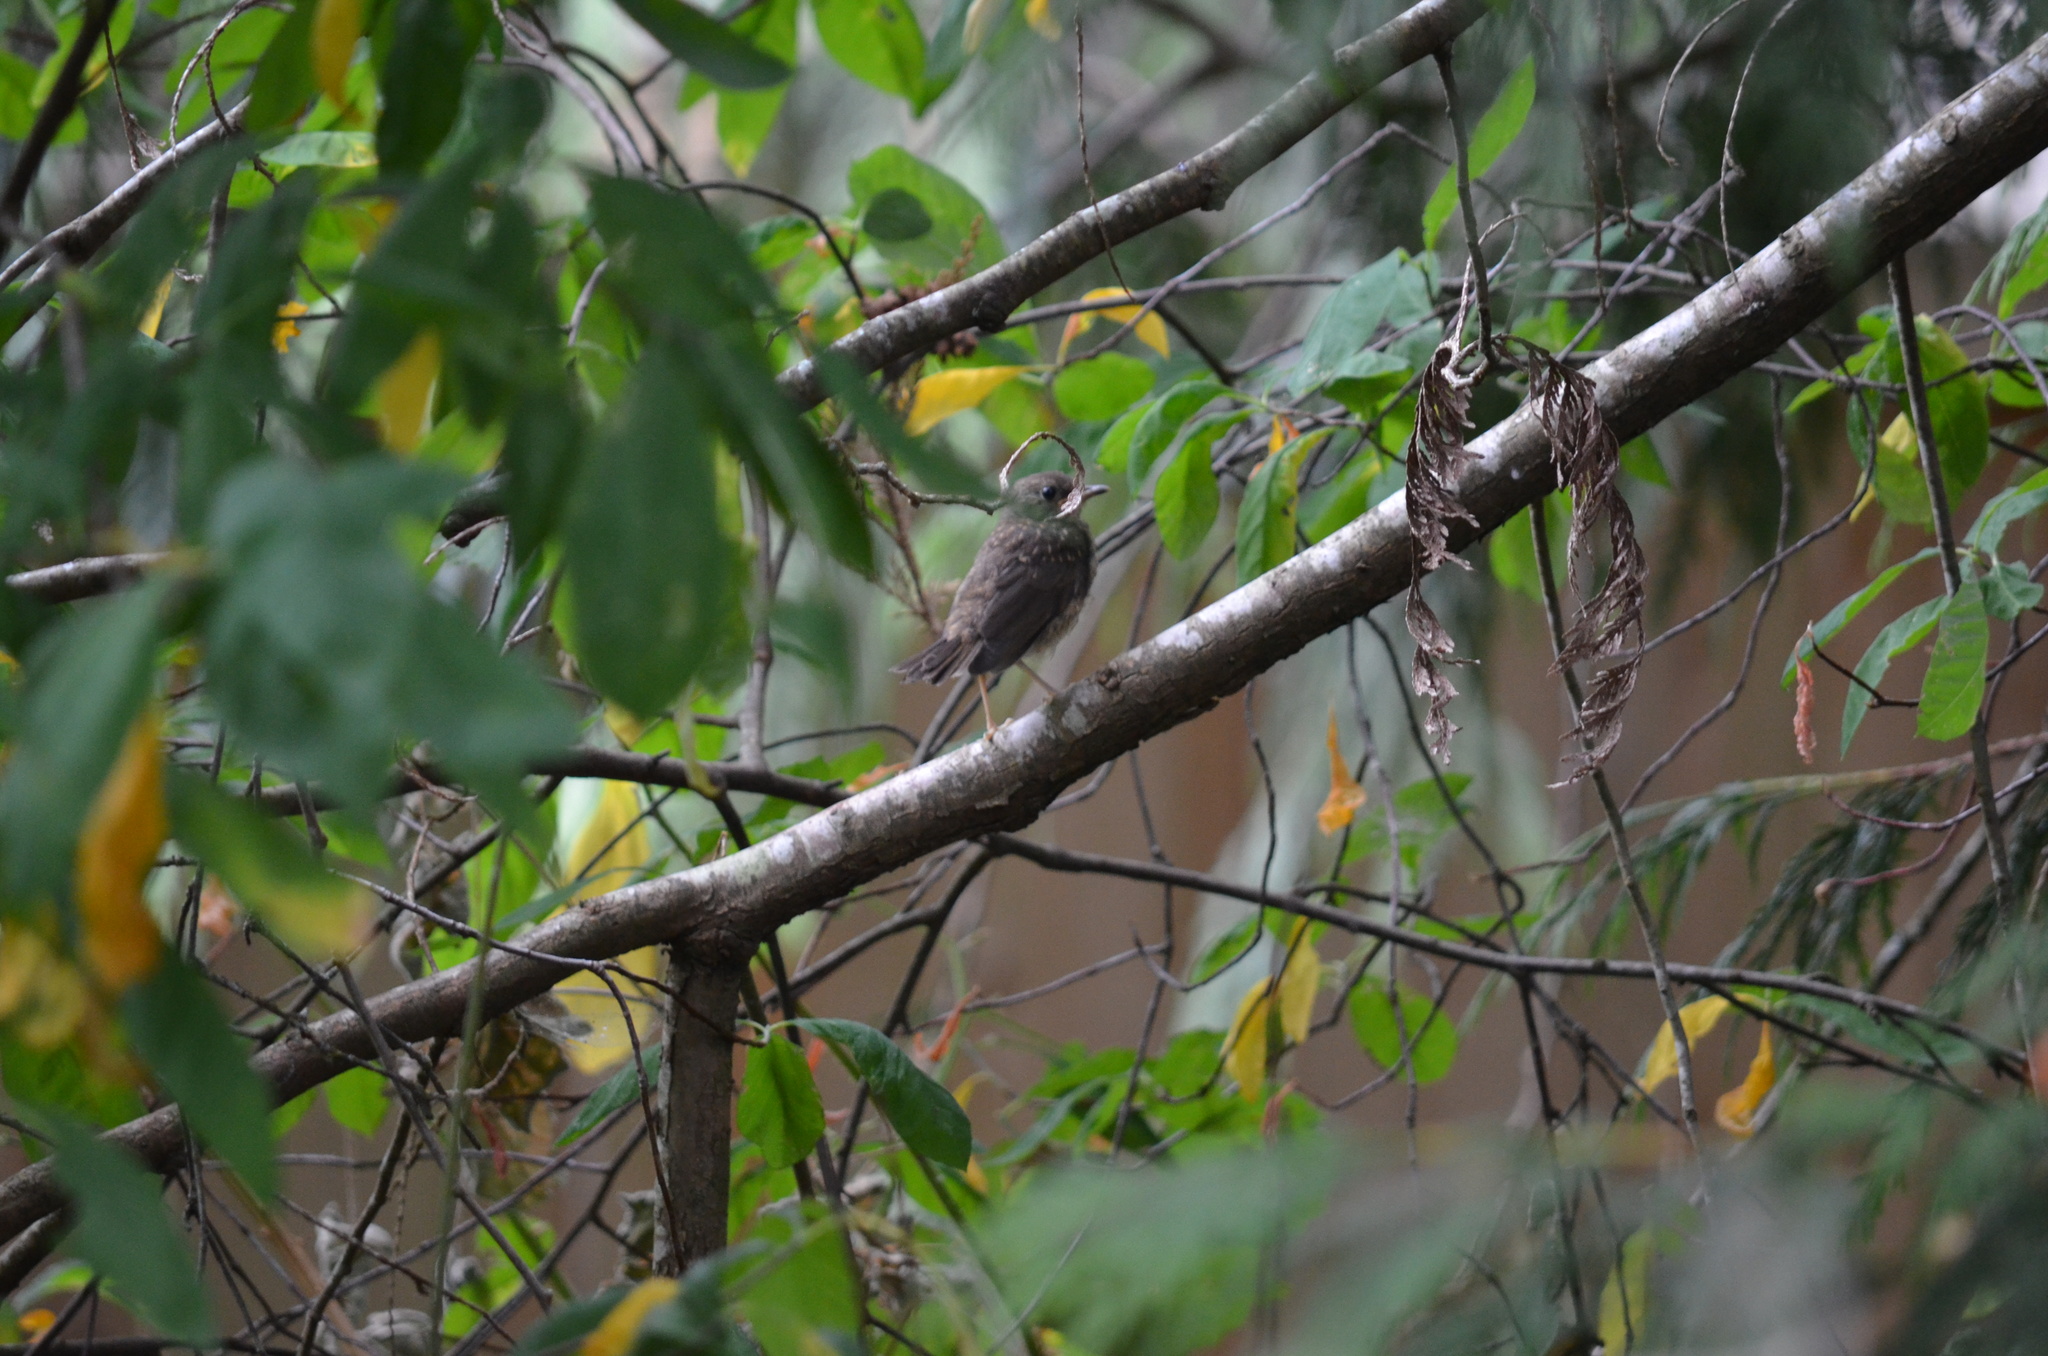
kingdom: Animalia
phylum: Chordata
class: Aves
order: Passeriformes
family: Passerellidae
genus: Pipilo
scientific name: Pipilo maculatus
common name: Spotted towhee
